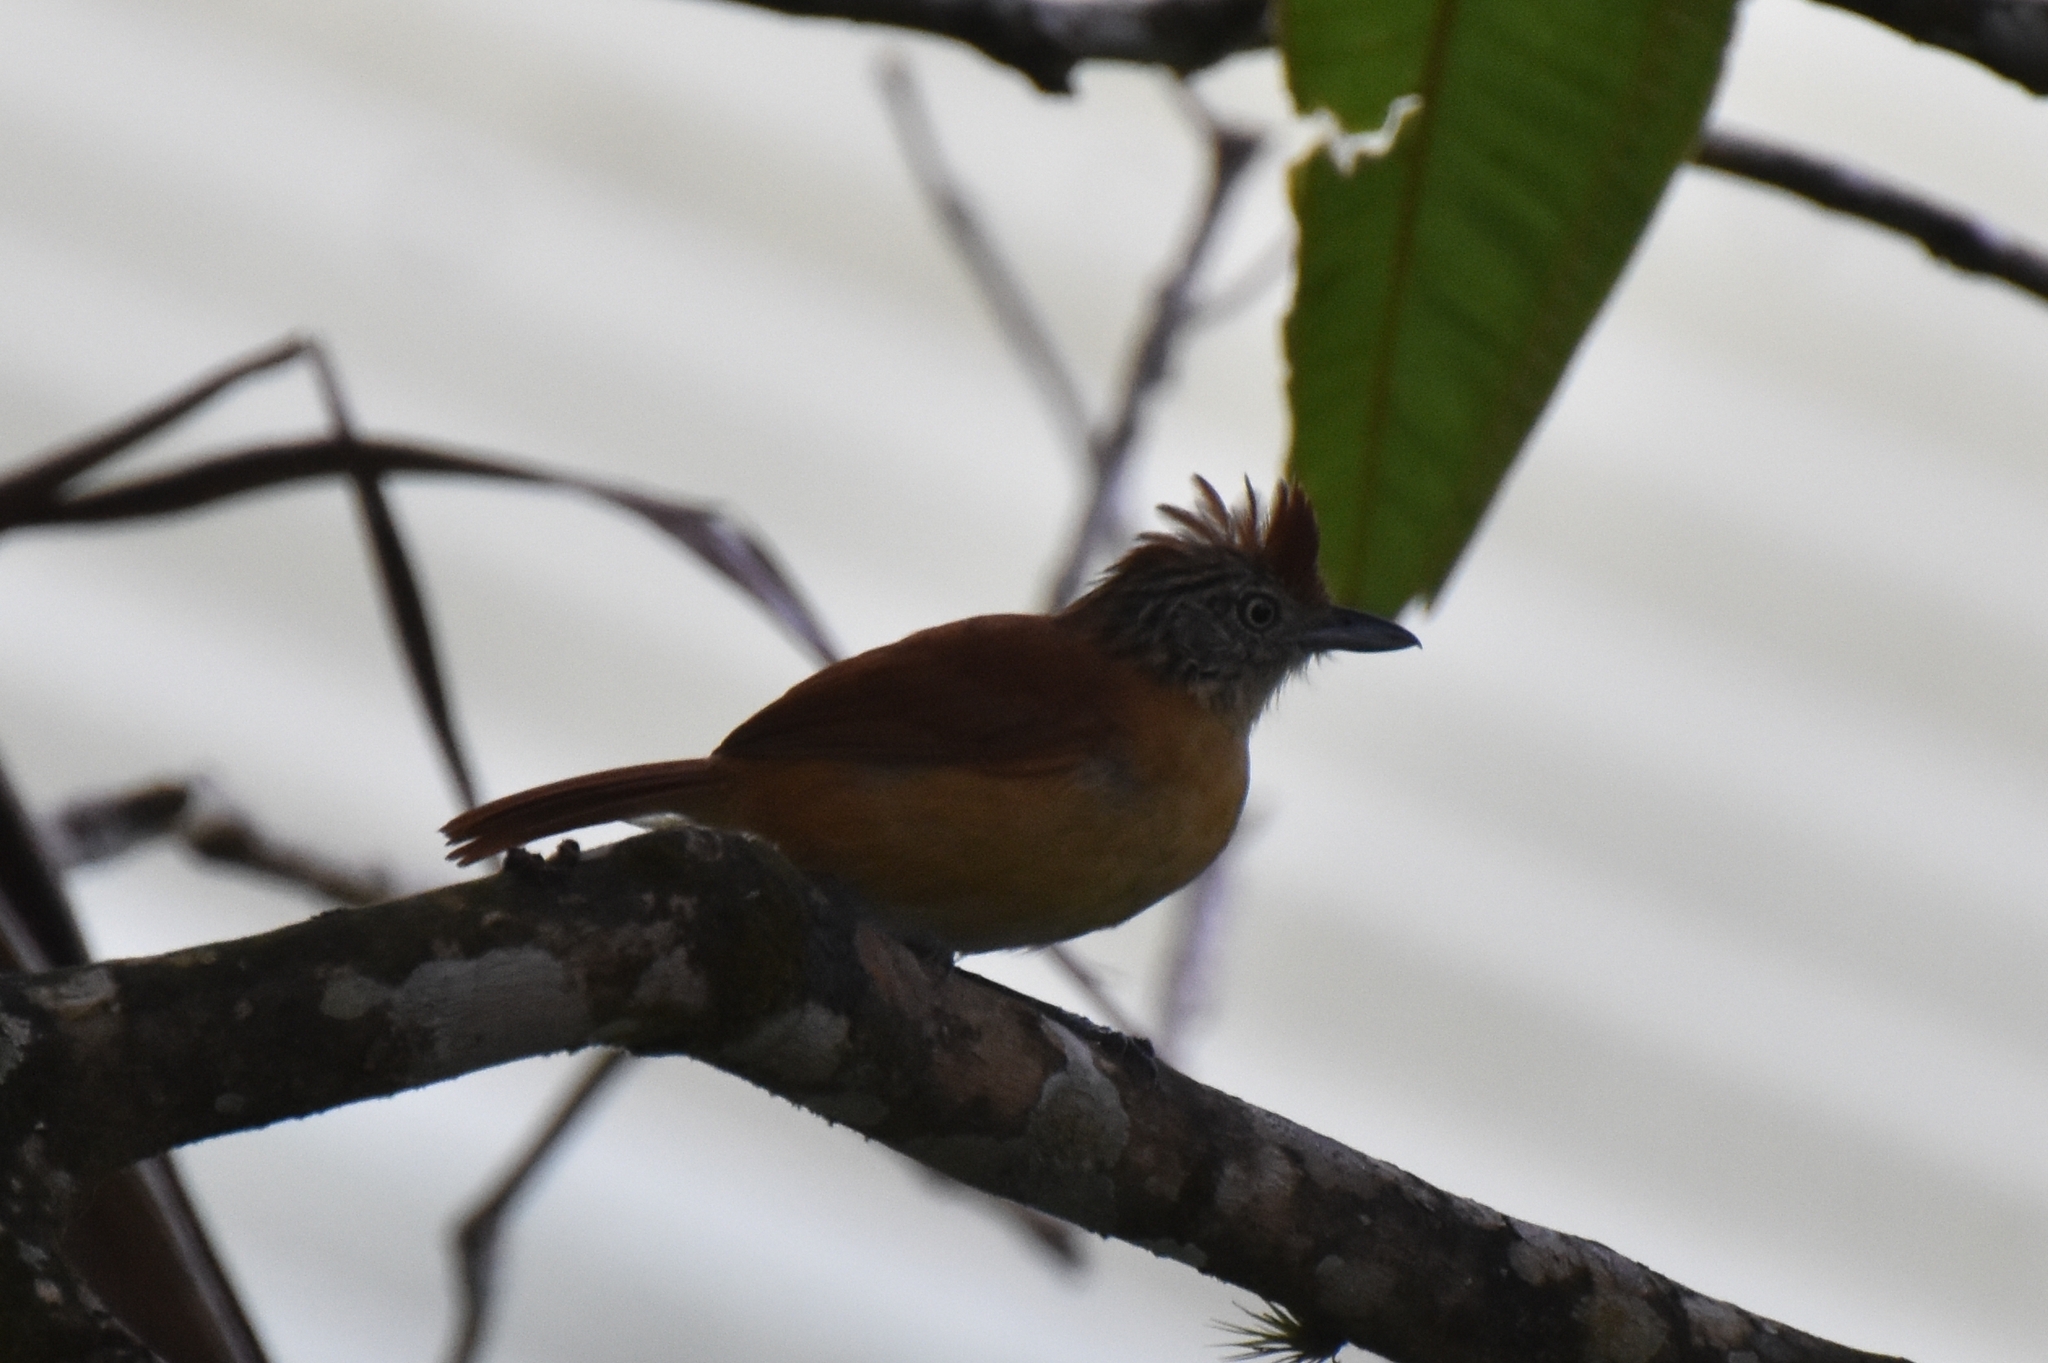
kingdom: Animalia
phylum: Chordata
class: Aves
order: Passeriformes
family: Thamnophilidae
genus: Thamnophilus
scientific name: Thamnophilus doliatus
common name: Barred antshrike
